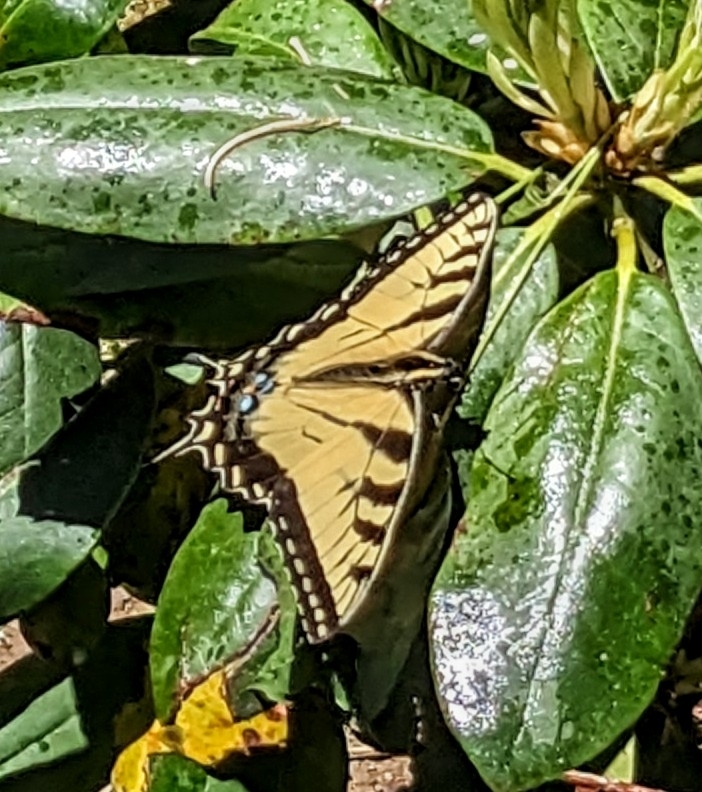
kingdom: Animalia
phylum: Arthropoda
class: Insecta
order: Lepidoptera
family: Papilionidae
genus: Papilio
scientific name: Papilio glaucus
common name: Tiger swallowtail
